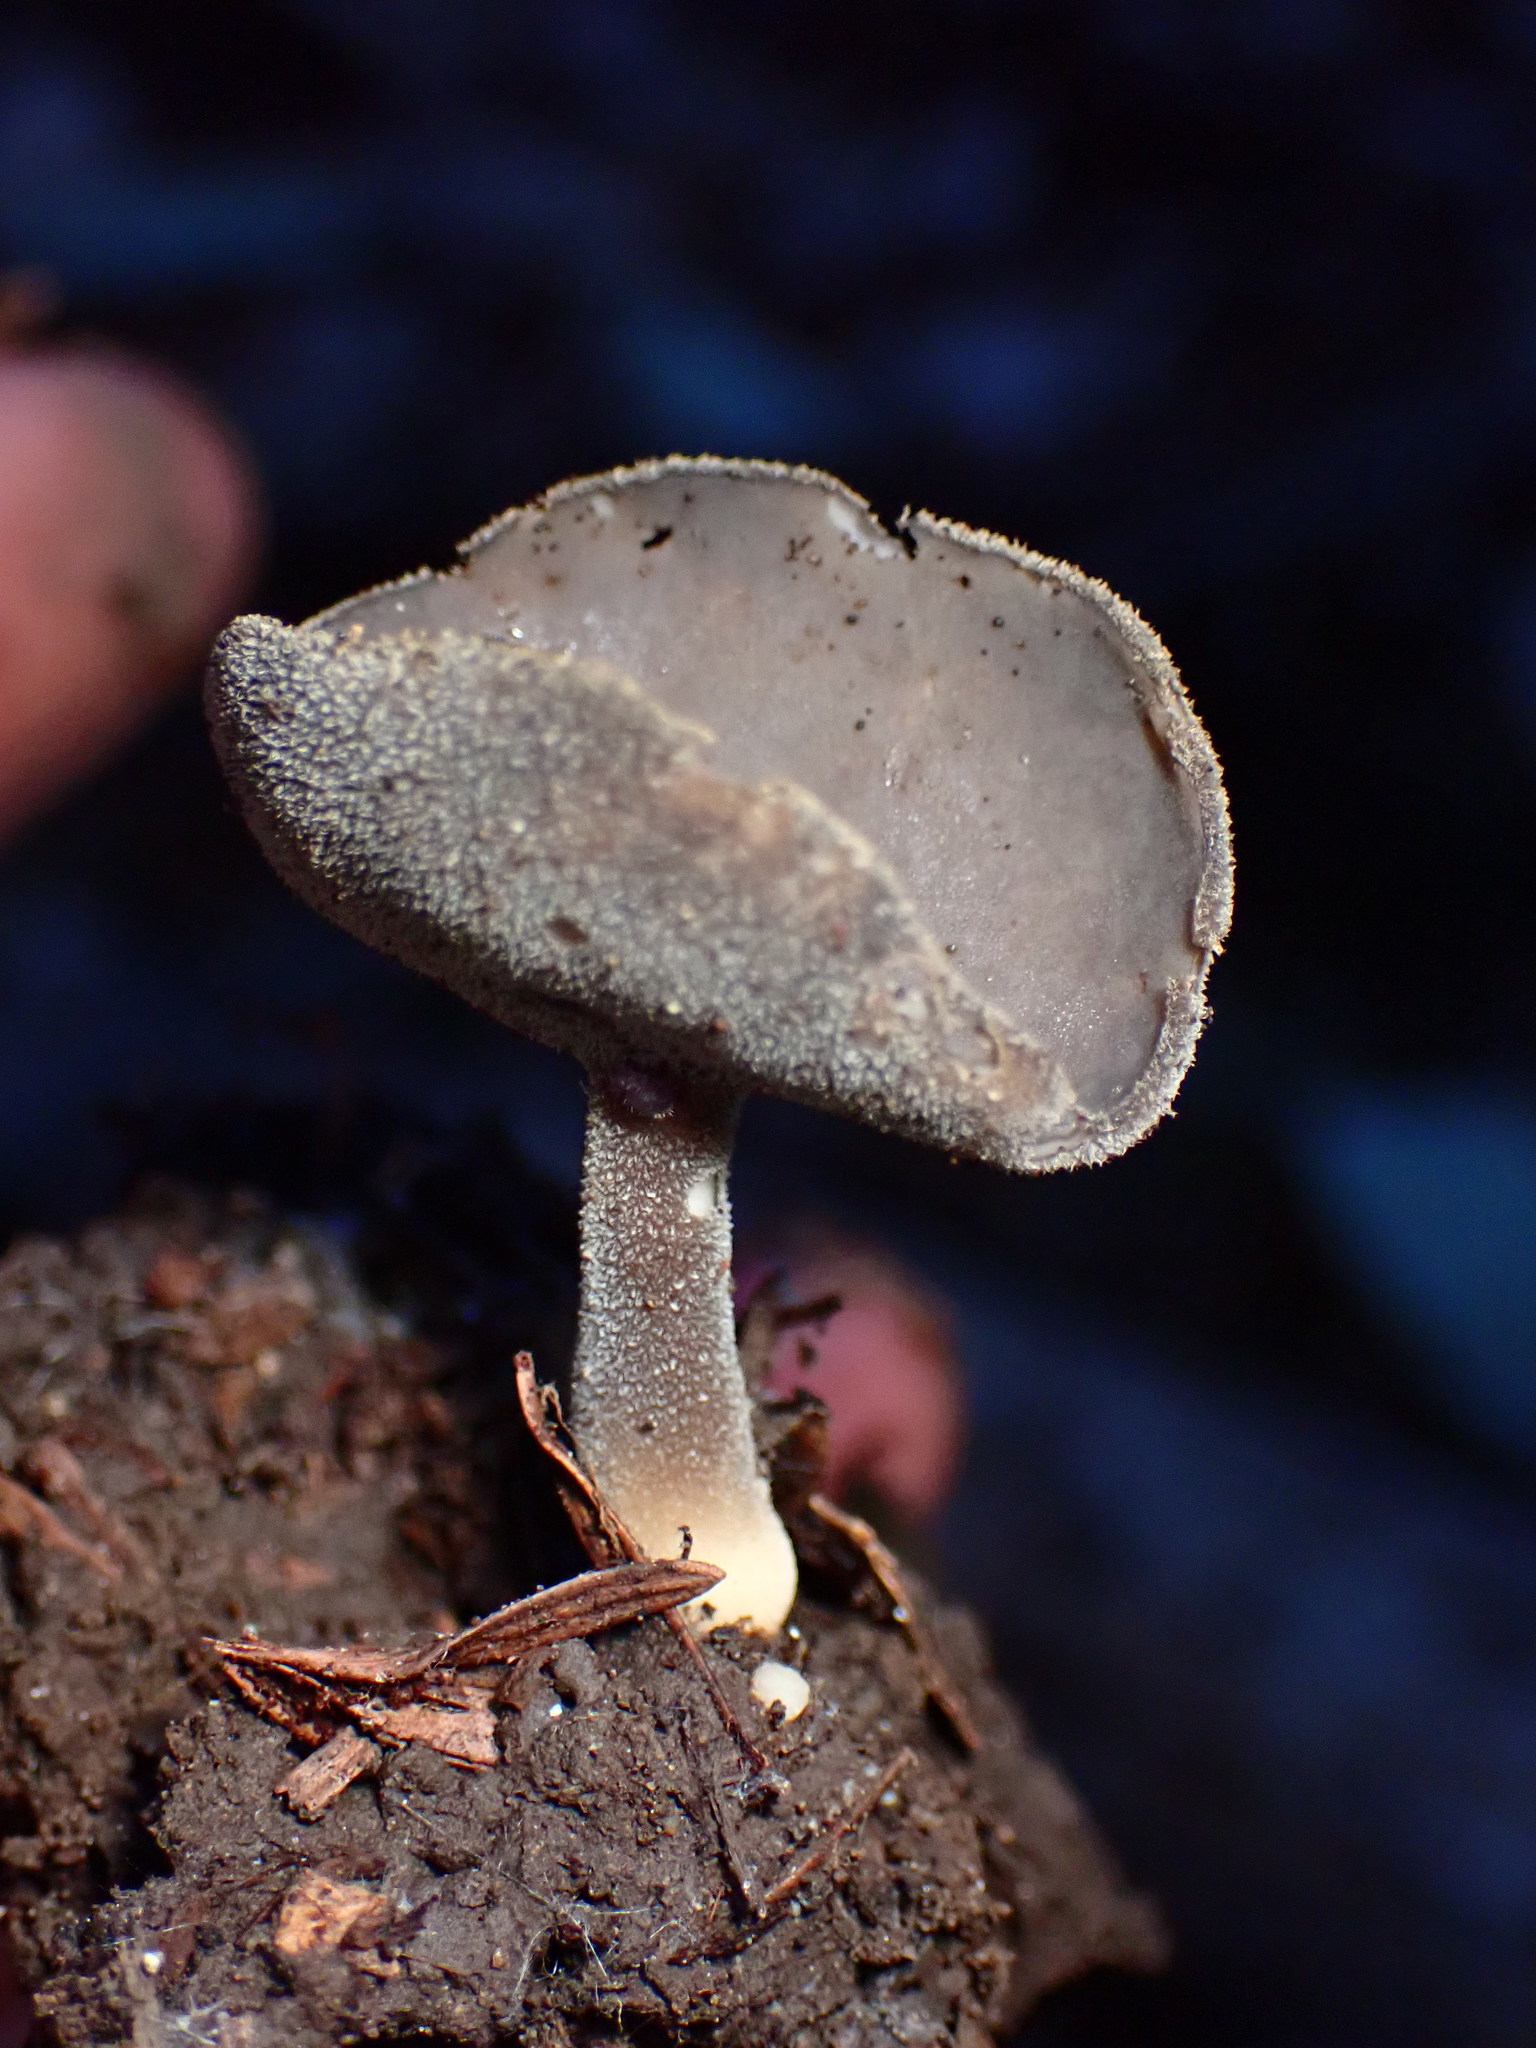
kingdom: Fungi
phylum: Ascomycota
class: Pezizomycetes
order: Pezizales
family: Helvellaceae
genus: Helvella
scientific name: Helvella macropus
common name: Felt saddle
